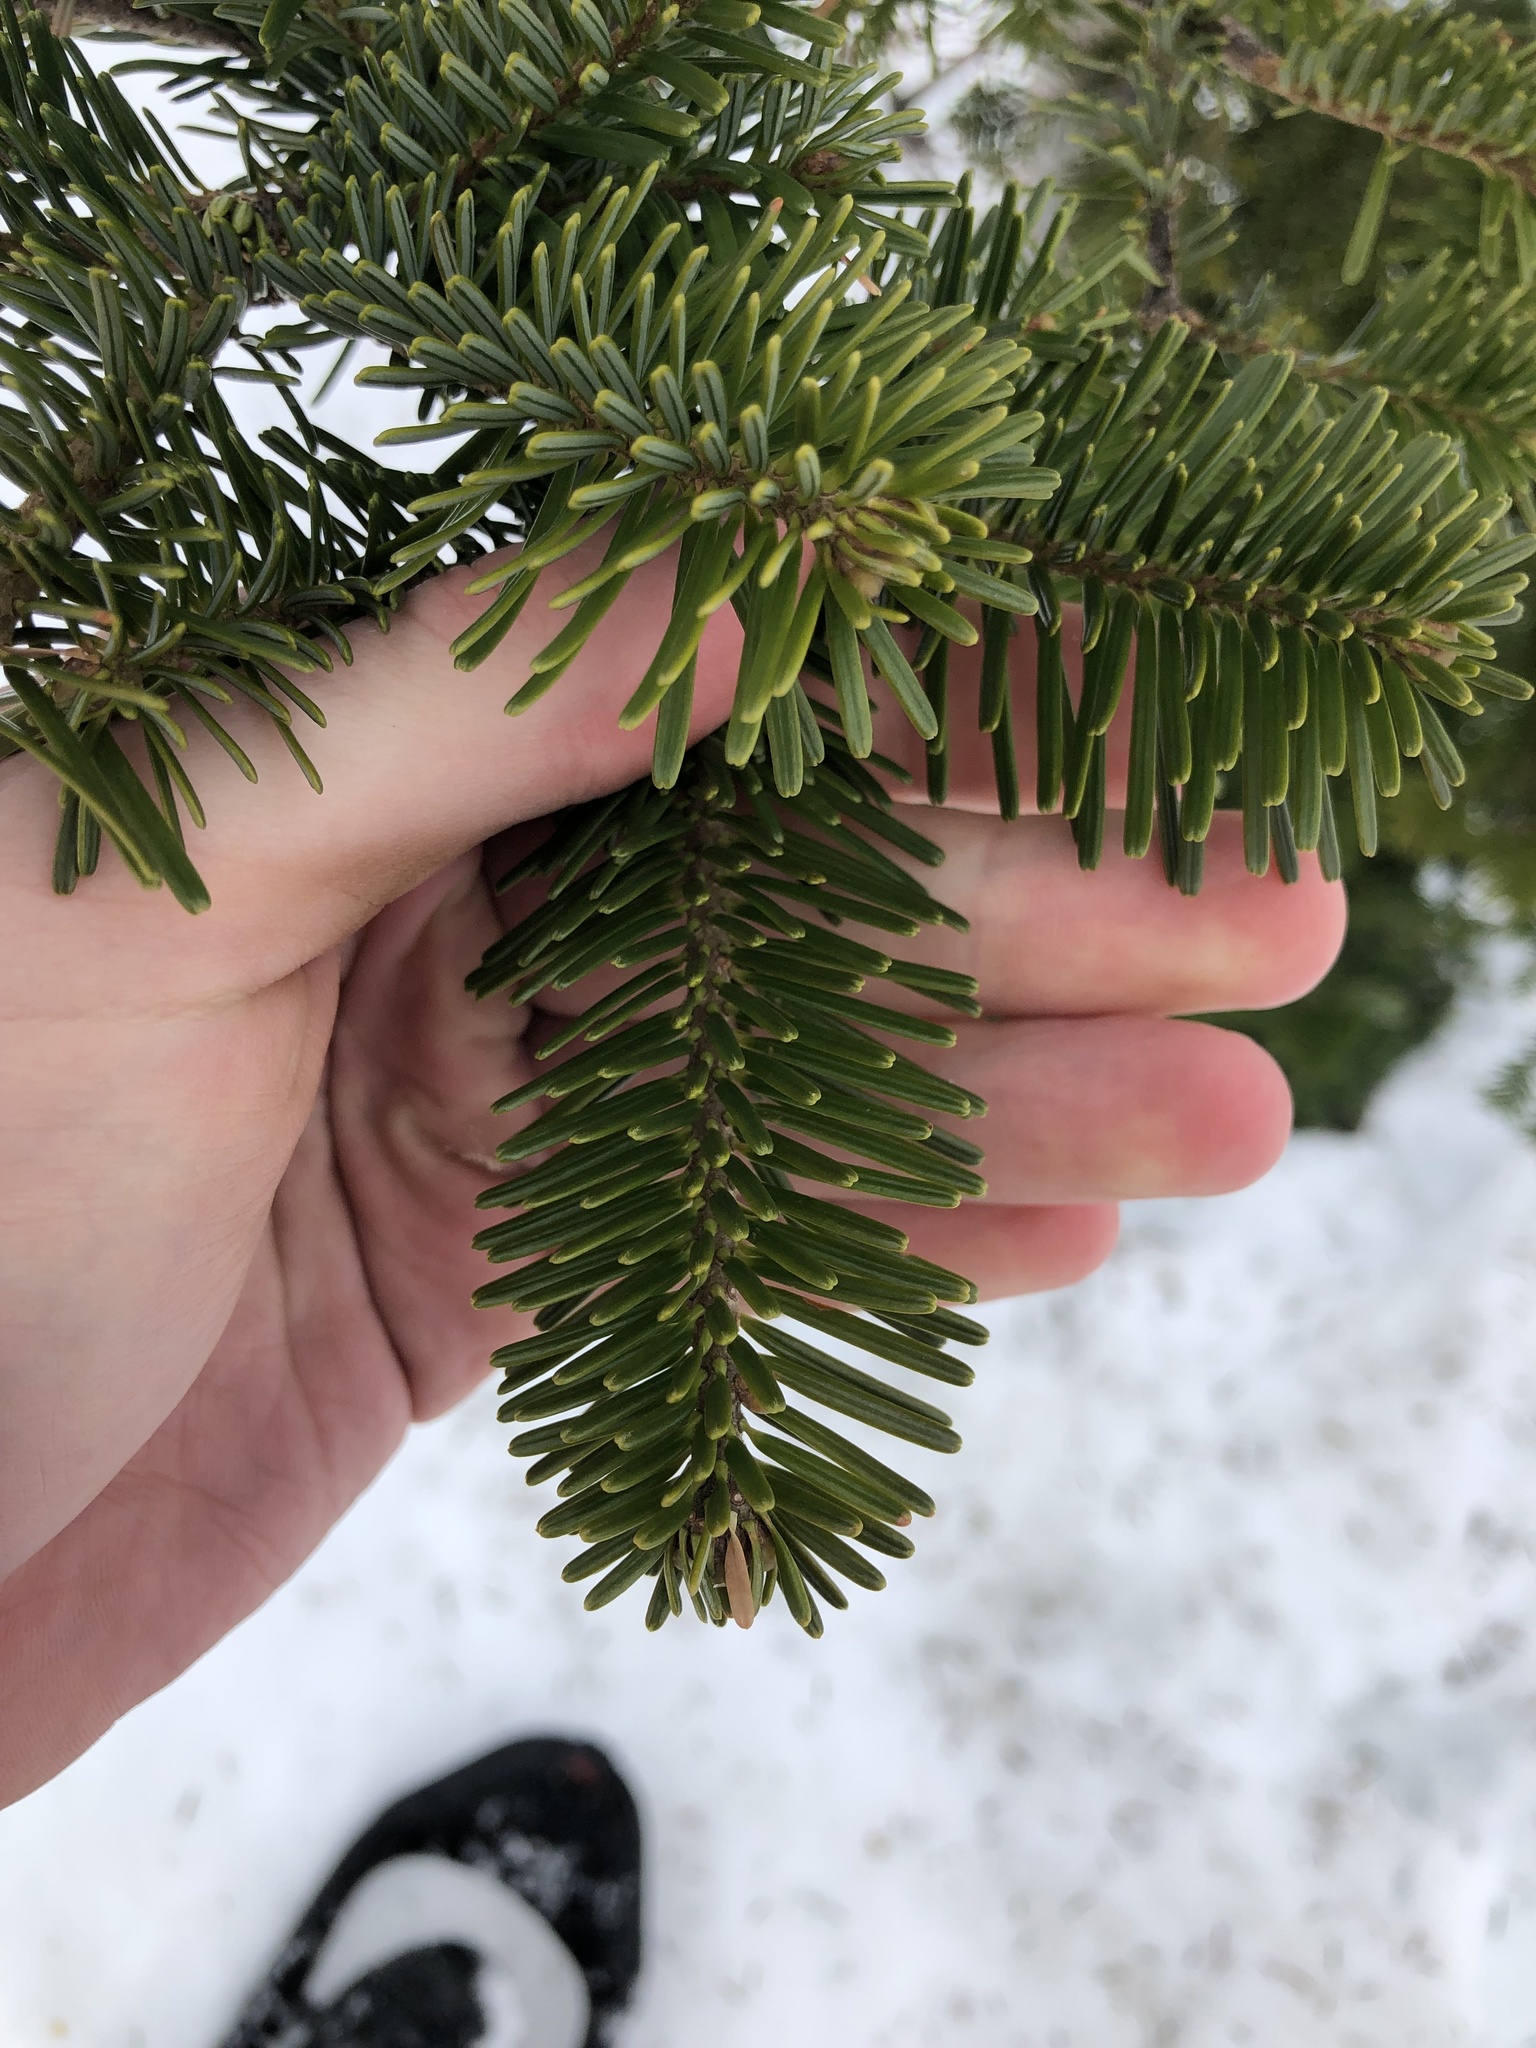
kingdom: Plantae
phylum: Tracheophyta
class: Pinopsida
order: Pinales
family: Pinaceae
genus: Abies
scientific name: Abies amabilis
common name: Pacific silver fir
